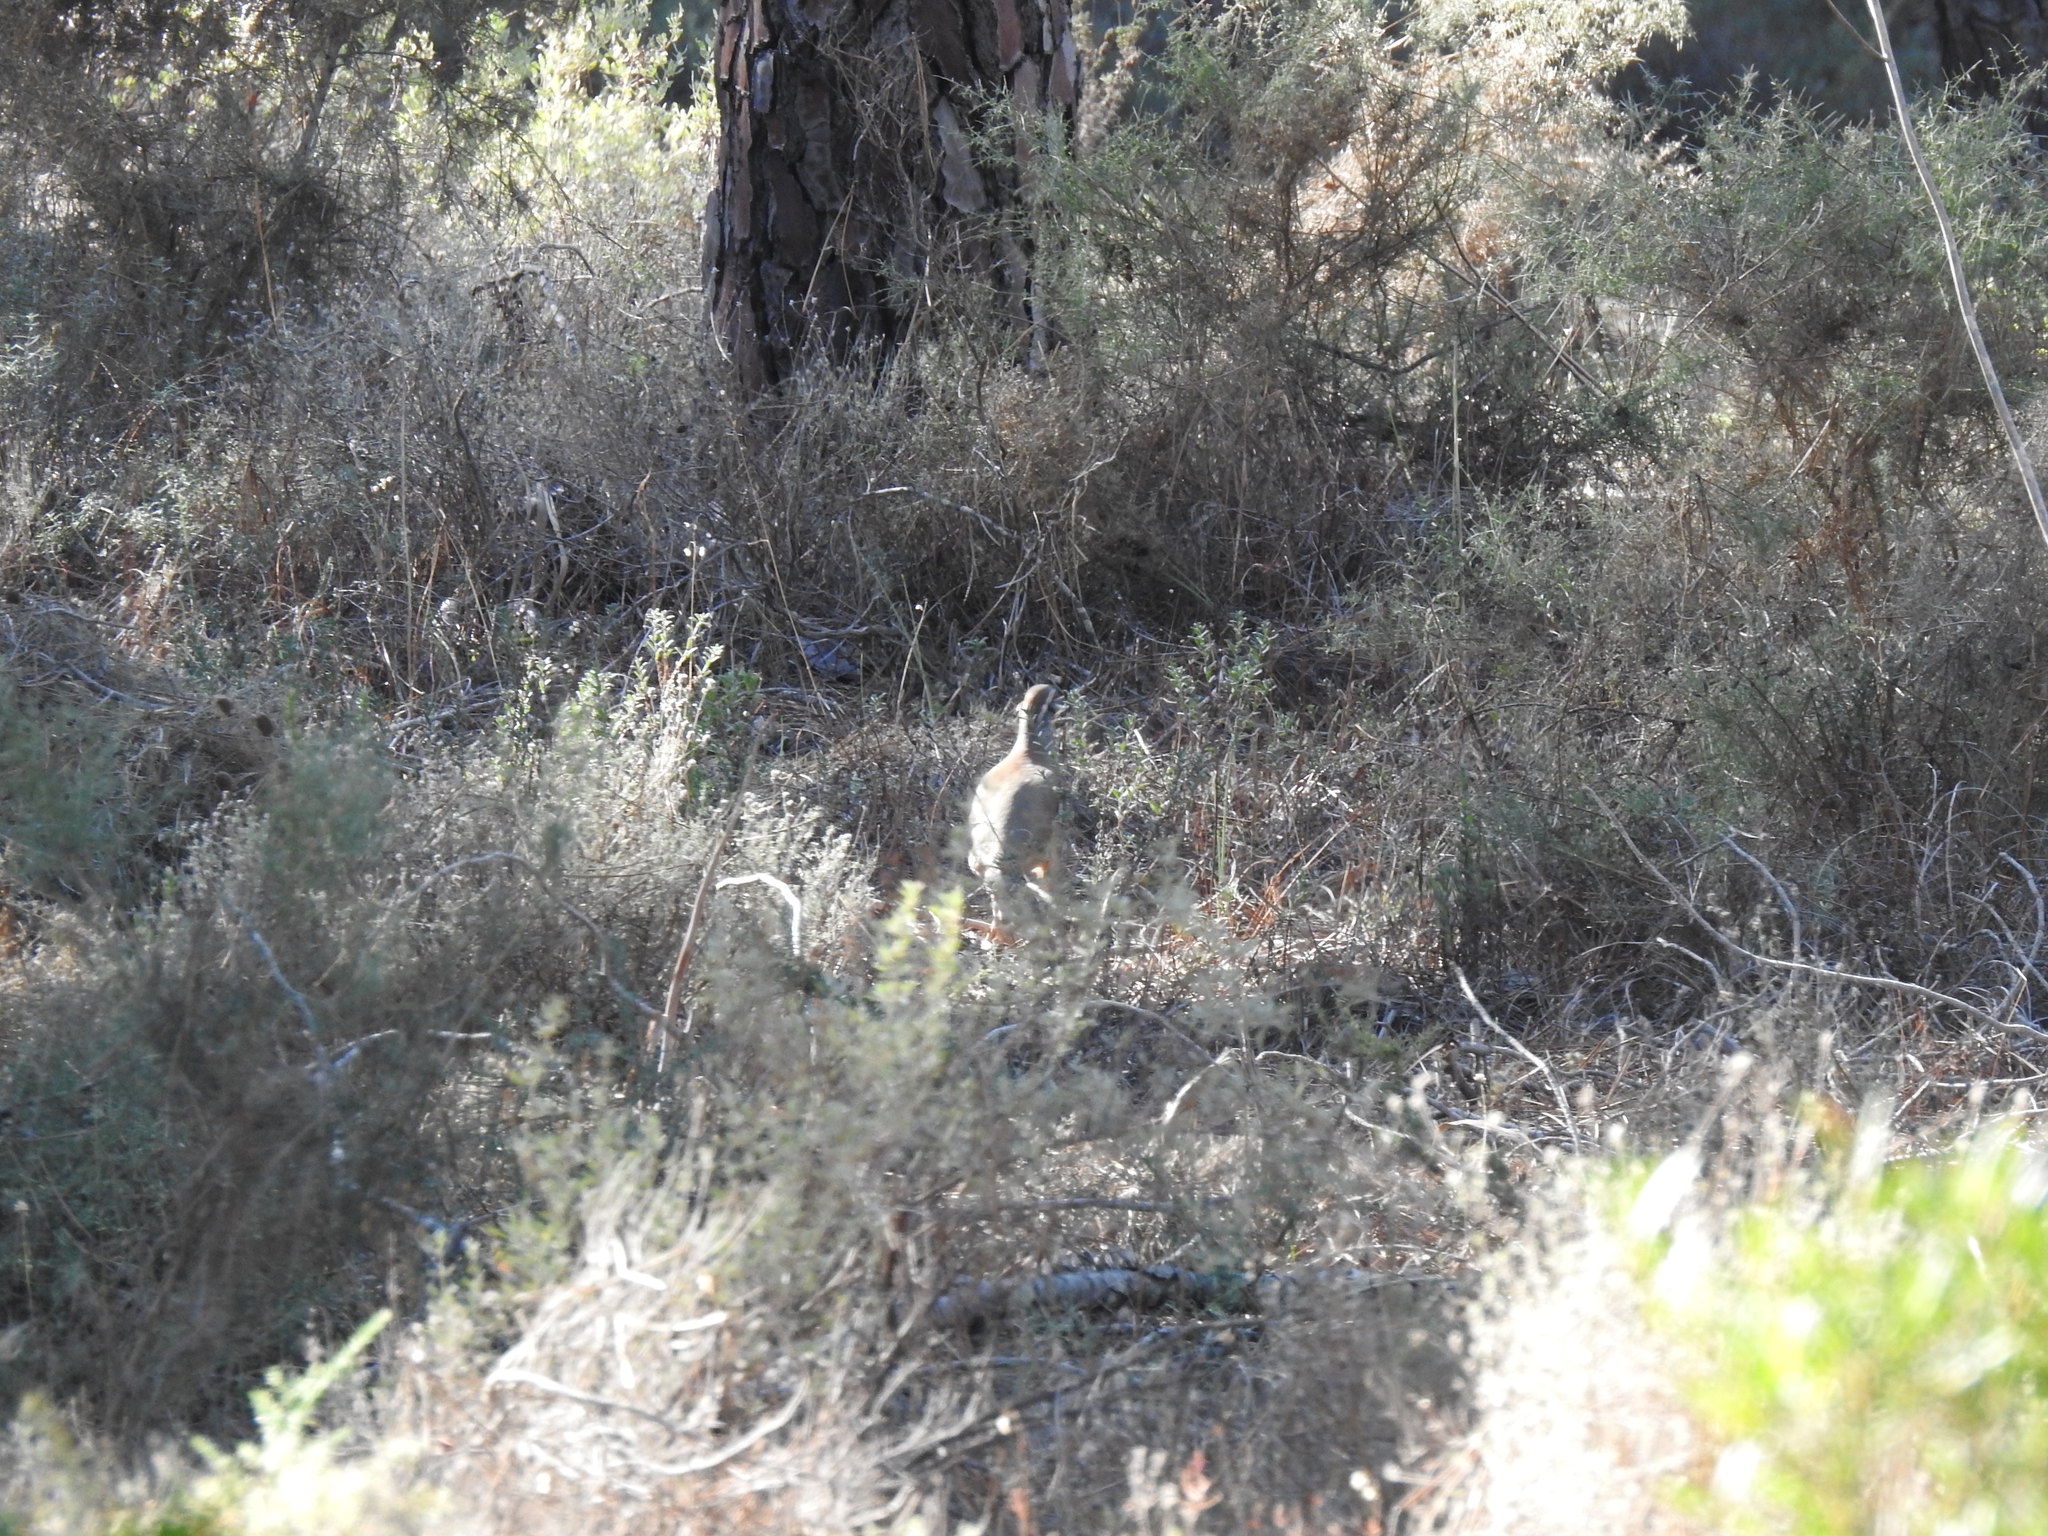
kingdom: Animalia
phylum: Chordata
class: Aves
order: Galliformes
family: Phasianidae
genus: Alectoris
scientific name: Alectoris rufa
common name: Red-legged partridge
